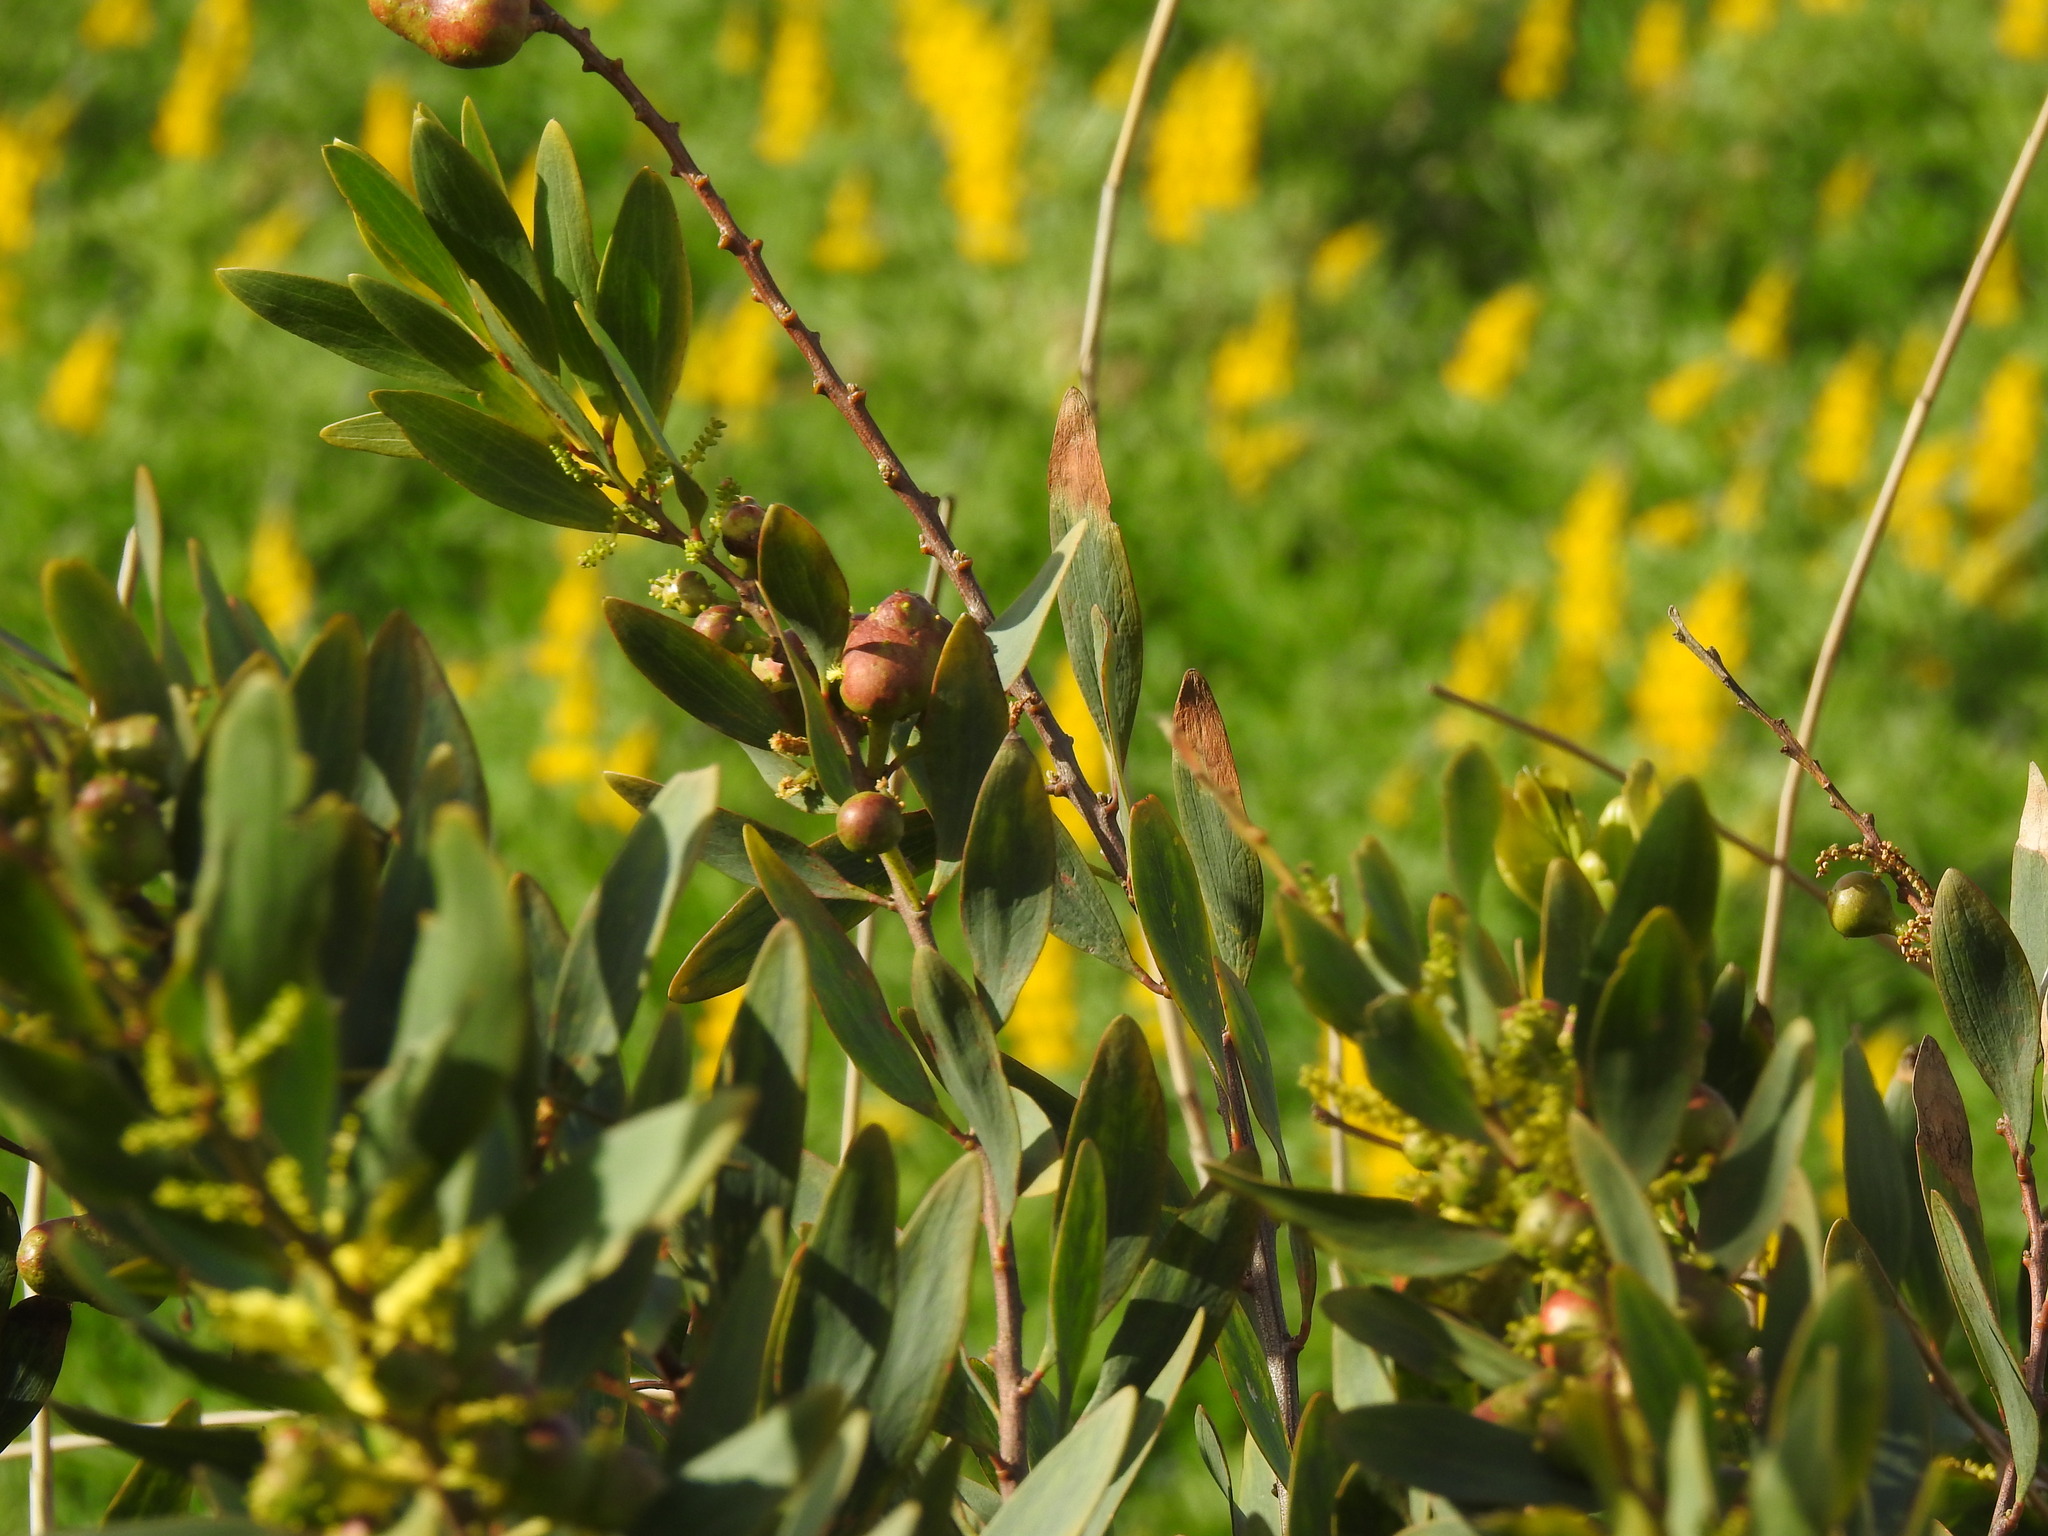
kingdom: Animalia
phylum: Arthropoda
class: Insecta
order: Hymenoptera
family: Pteromalidae
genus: Trichilogaster
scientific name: Trichilogaster acaciaelongifoliae
